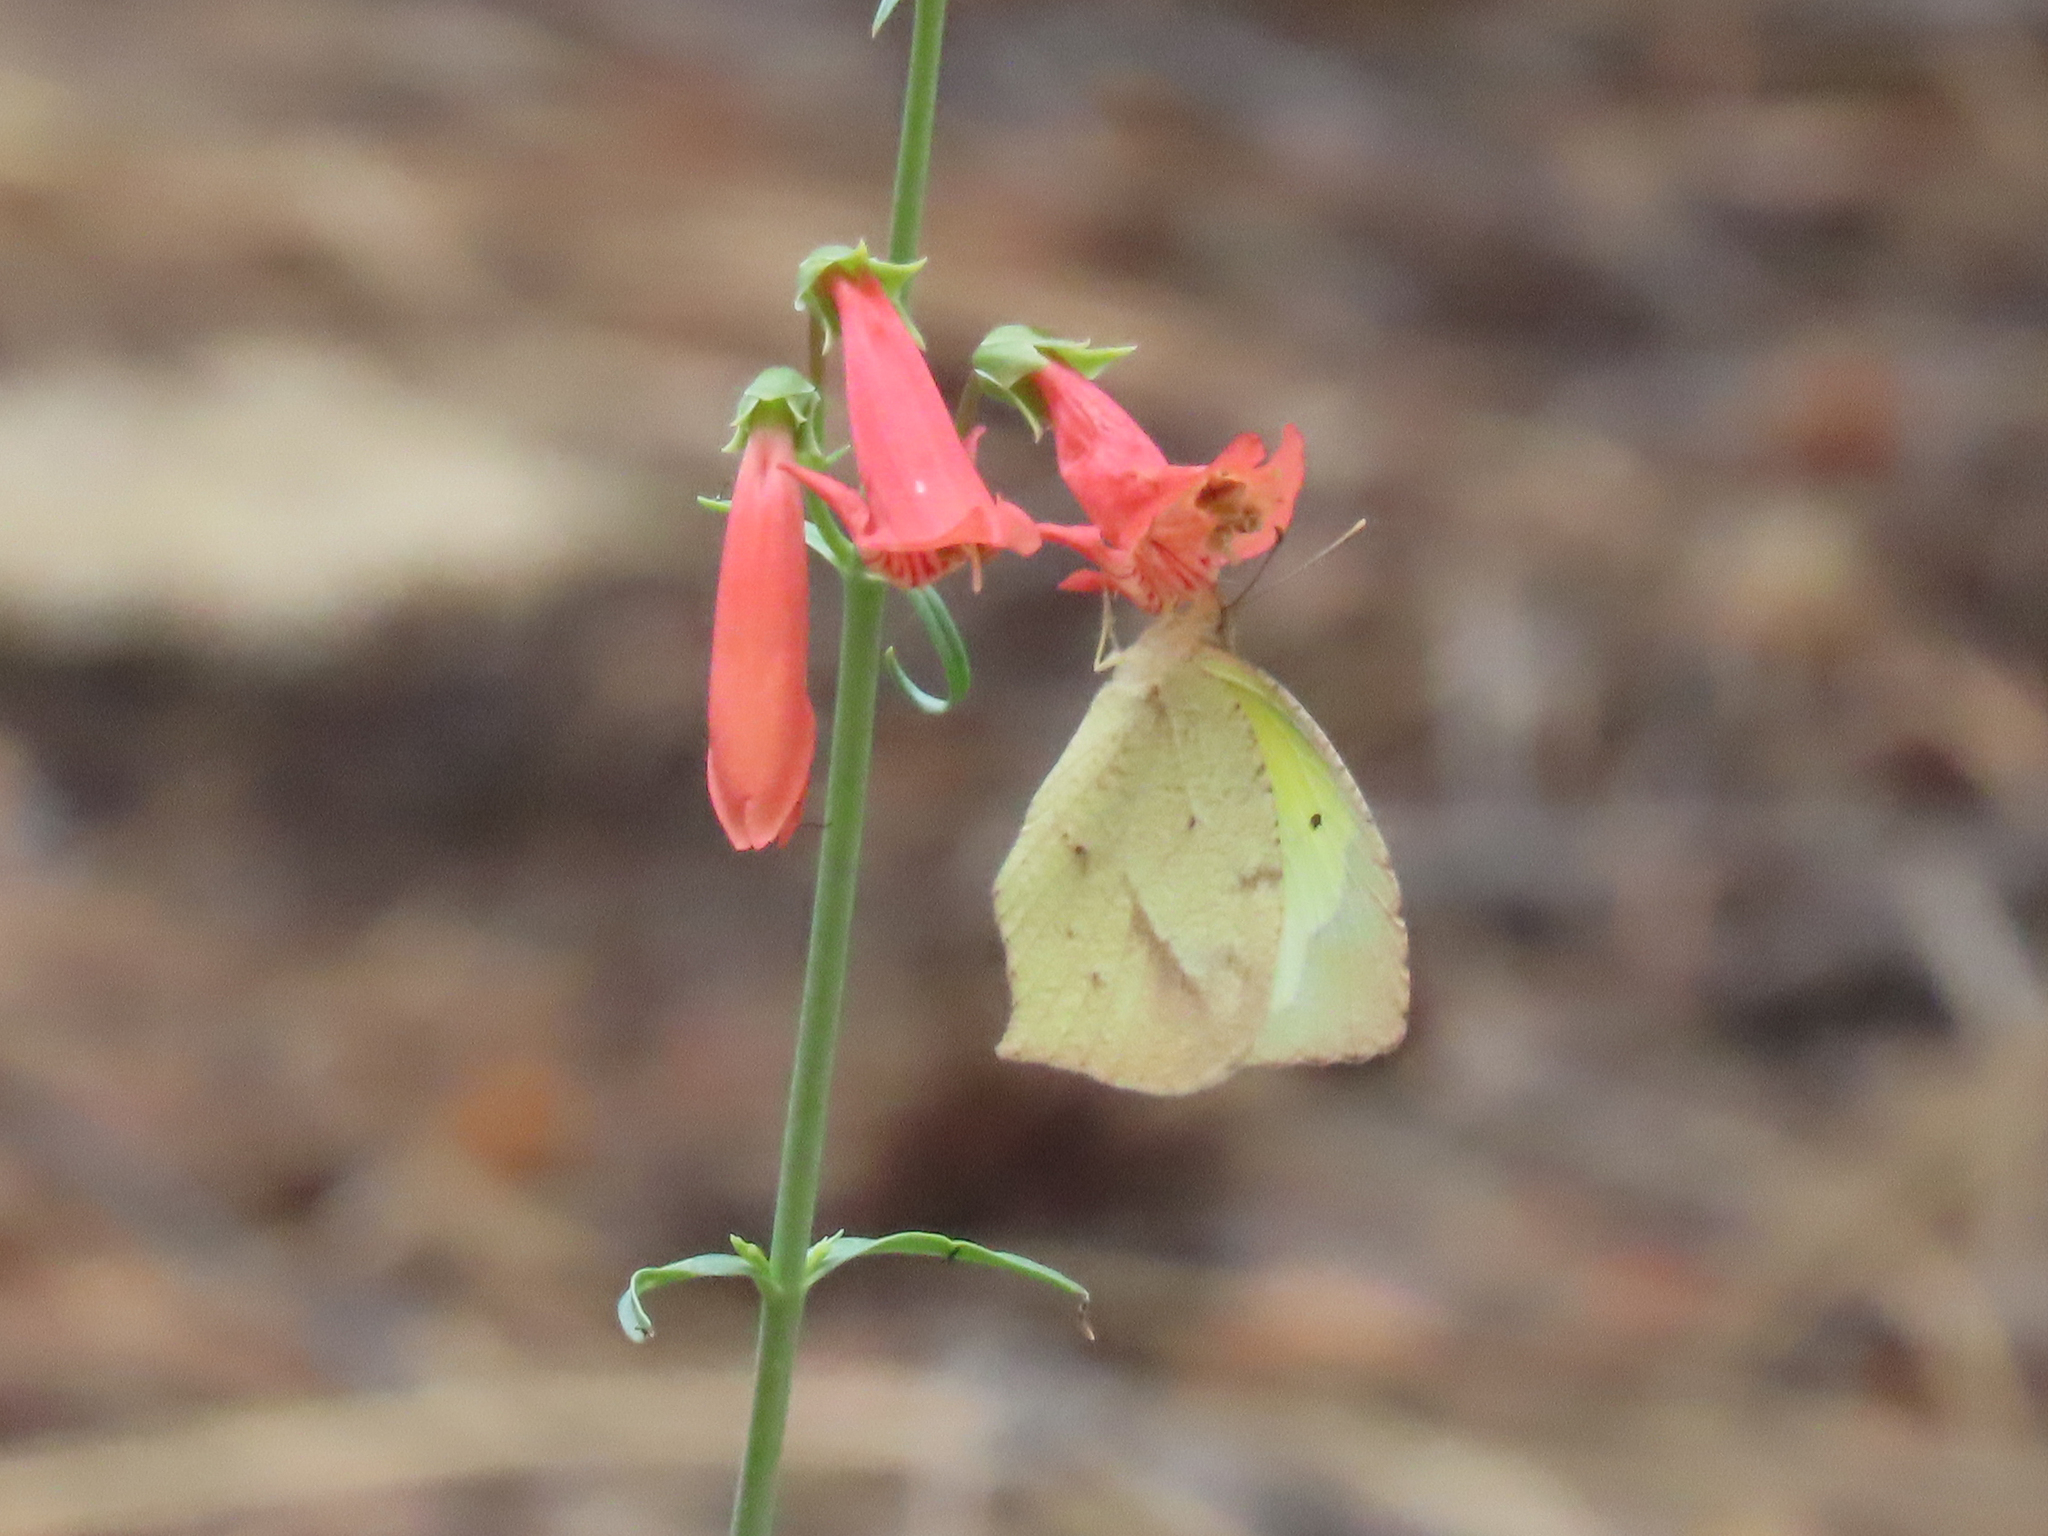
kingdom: Animalia
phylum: Arthropoda
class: Insecta
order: Lepidoptera
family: Pieridae
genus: Abaeis
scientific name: Abaeis mexicana
